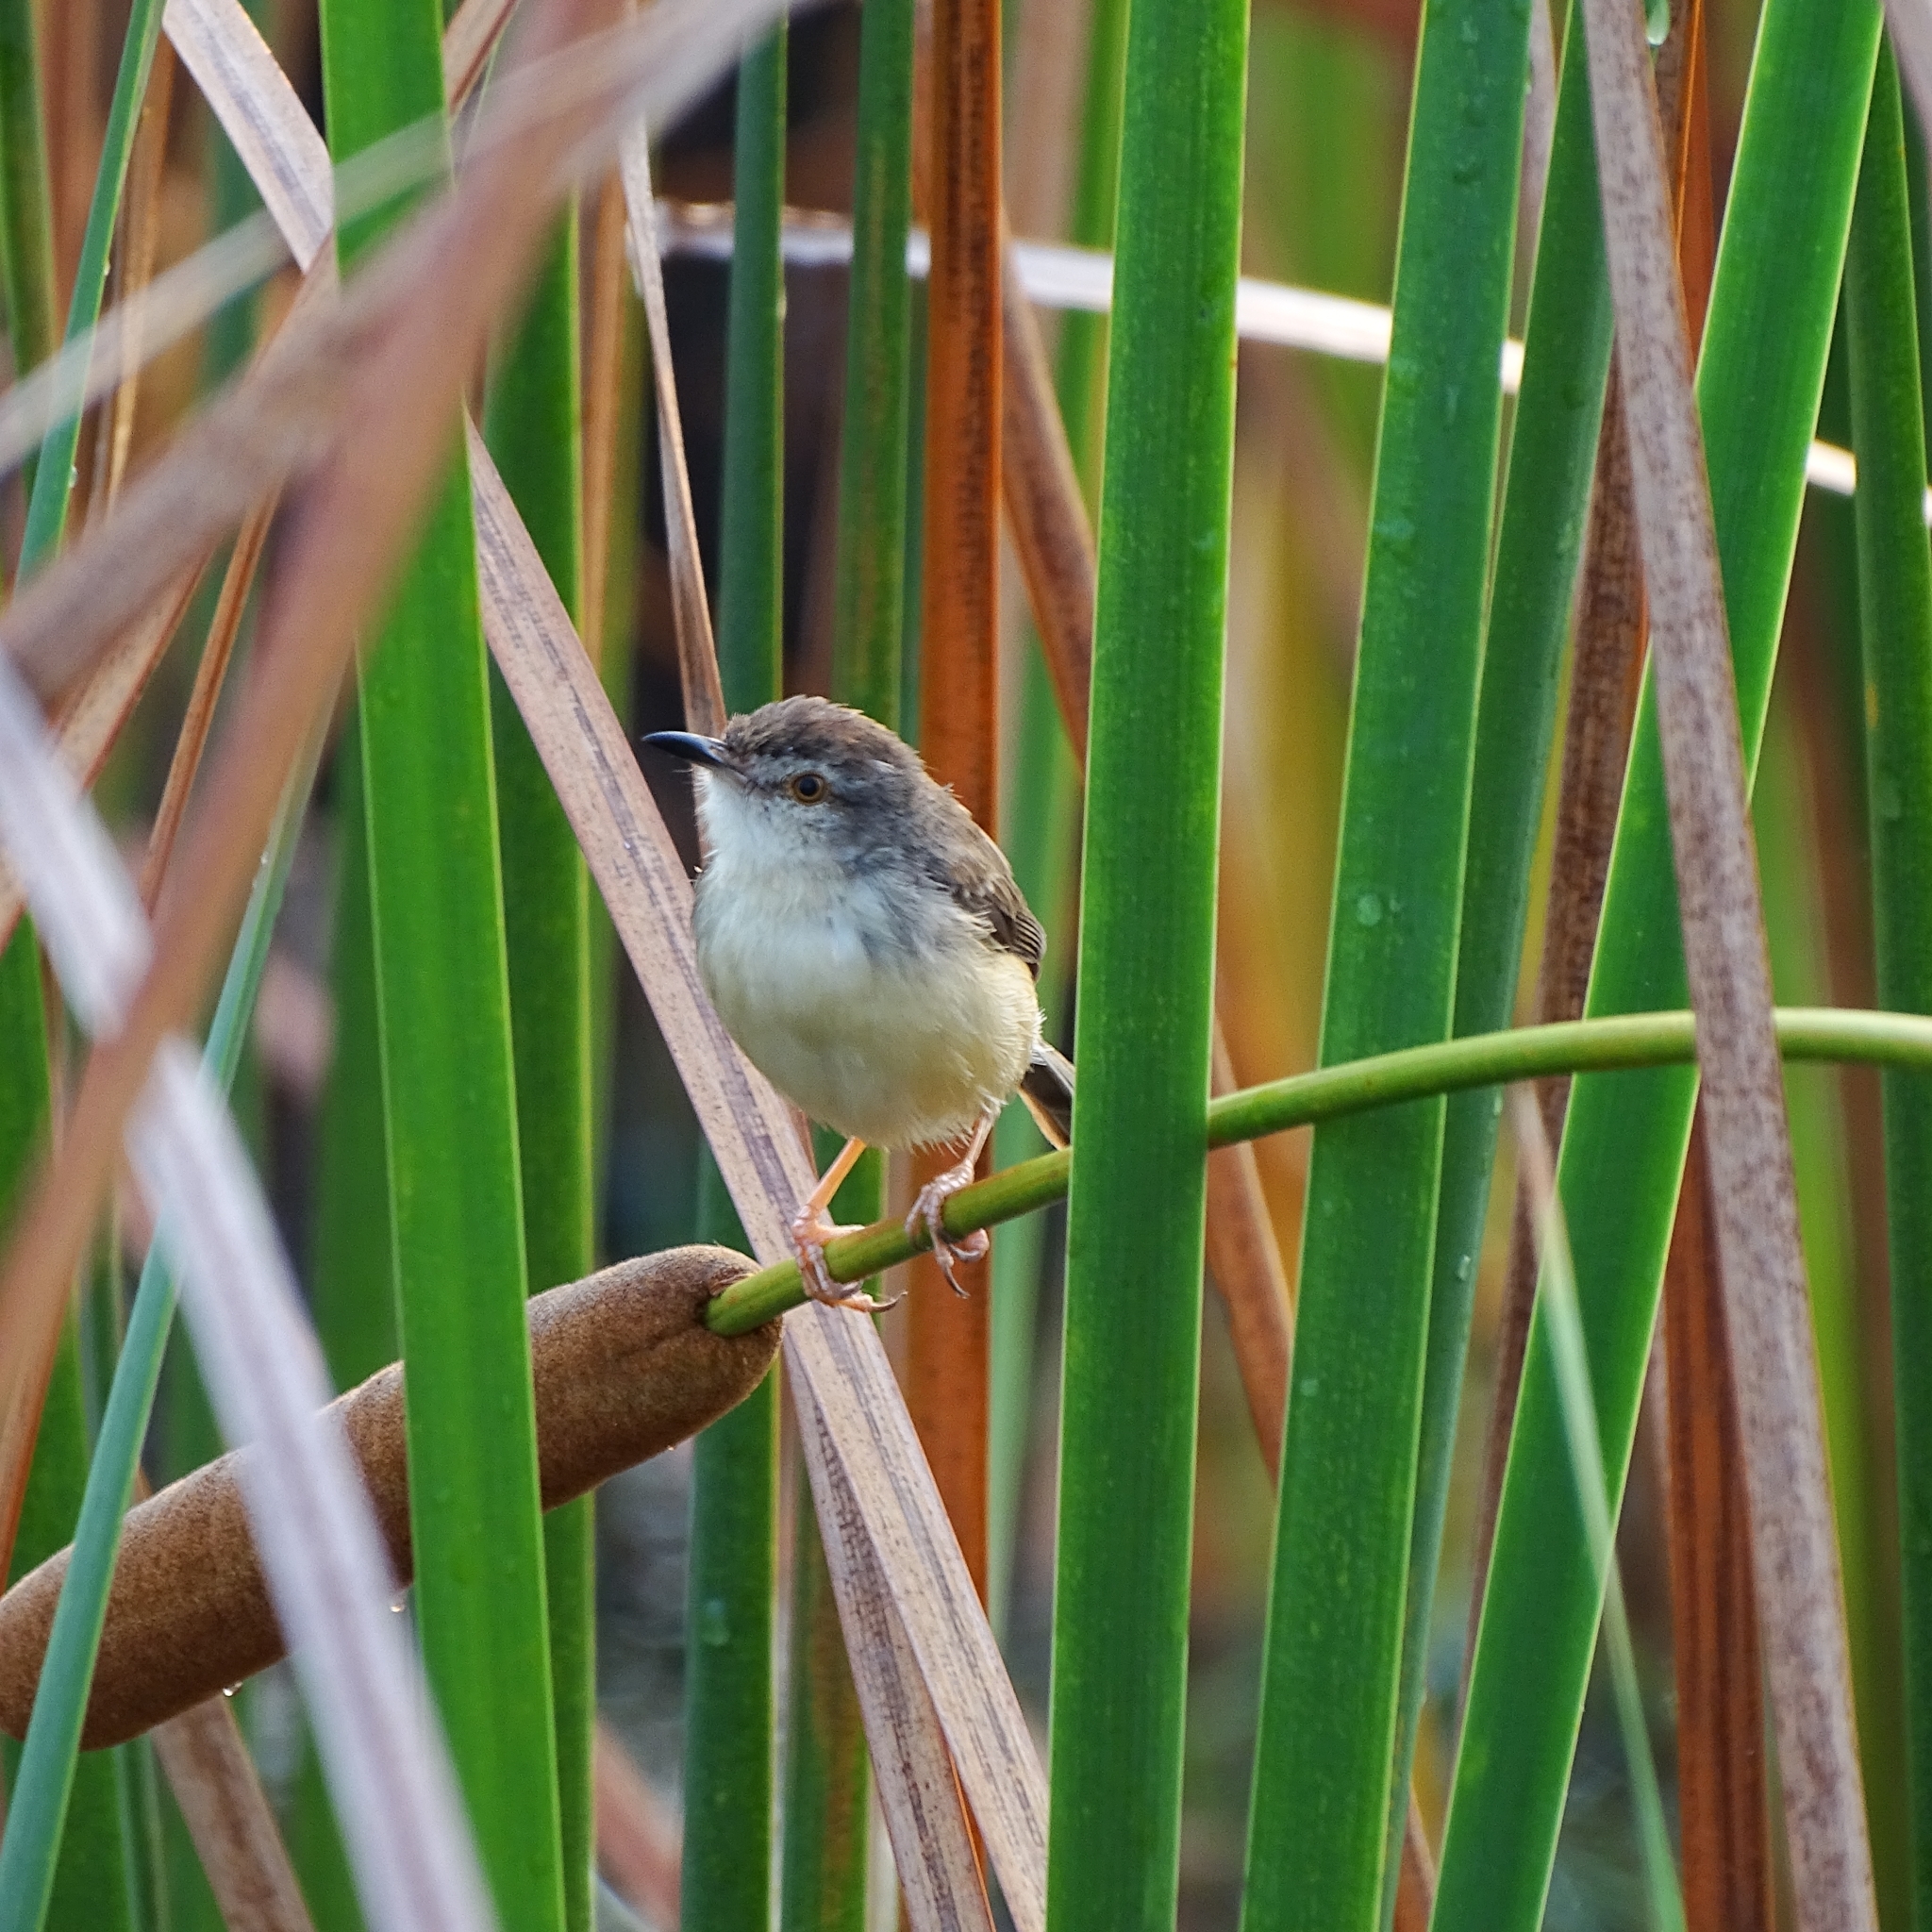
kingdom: Animalia
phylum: Chordata
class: Aves
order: Passeriformes
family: Cisticolidae
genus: Prinia
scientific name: Prinia inornata
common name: Plain prinia
